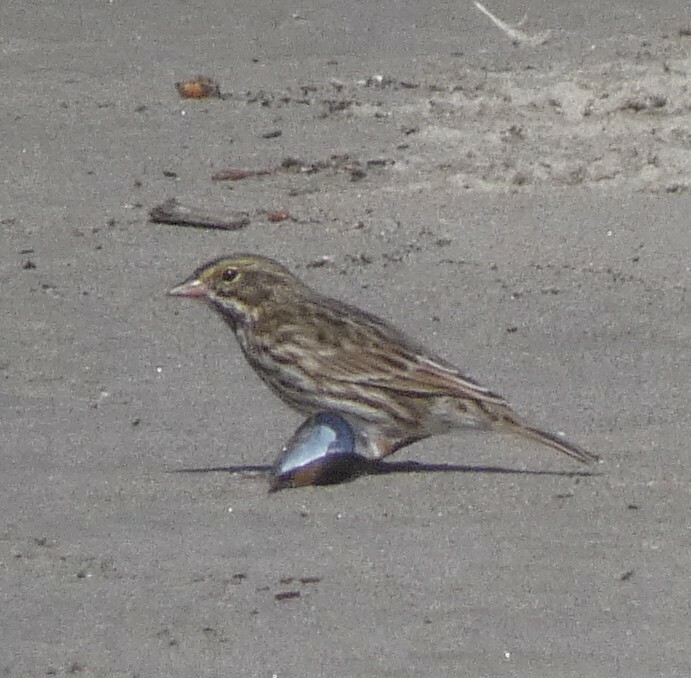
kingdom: Animalia
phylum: Chordata
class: Aves
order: Passeriformes
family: Passerellidae
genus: Passerculus
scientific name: Passerculus sandwichensis
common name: Savannah sparrow
